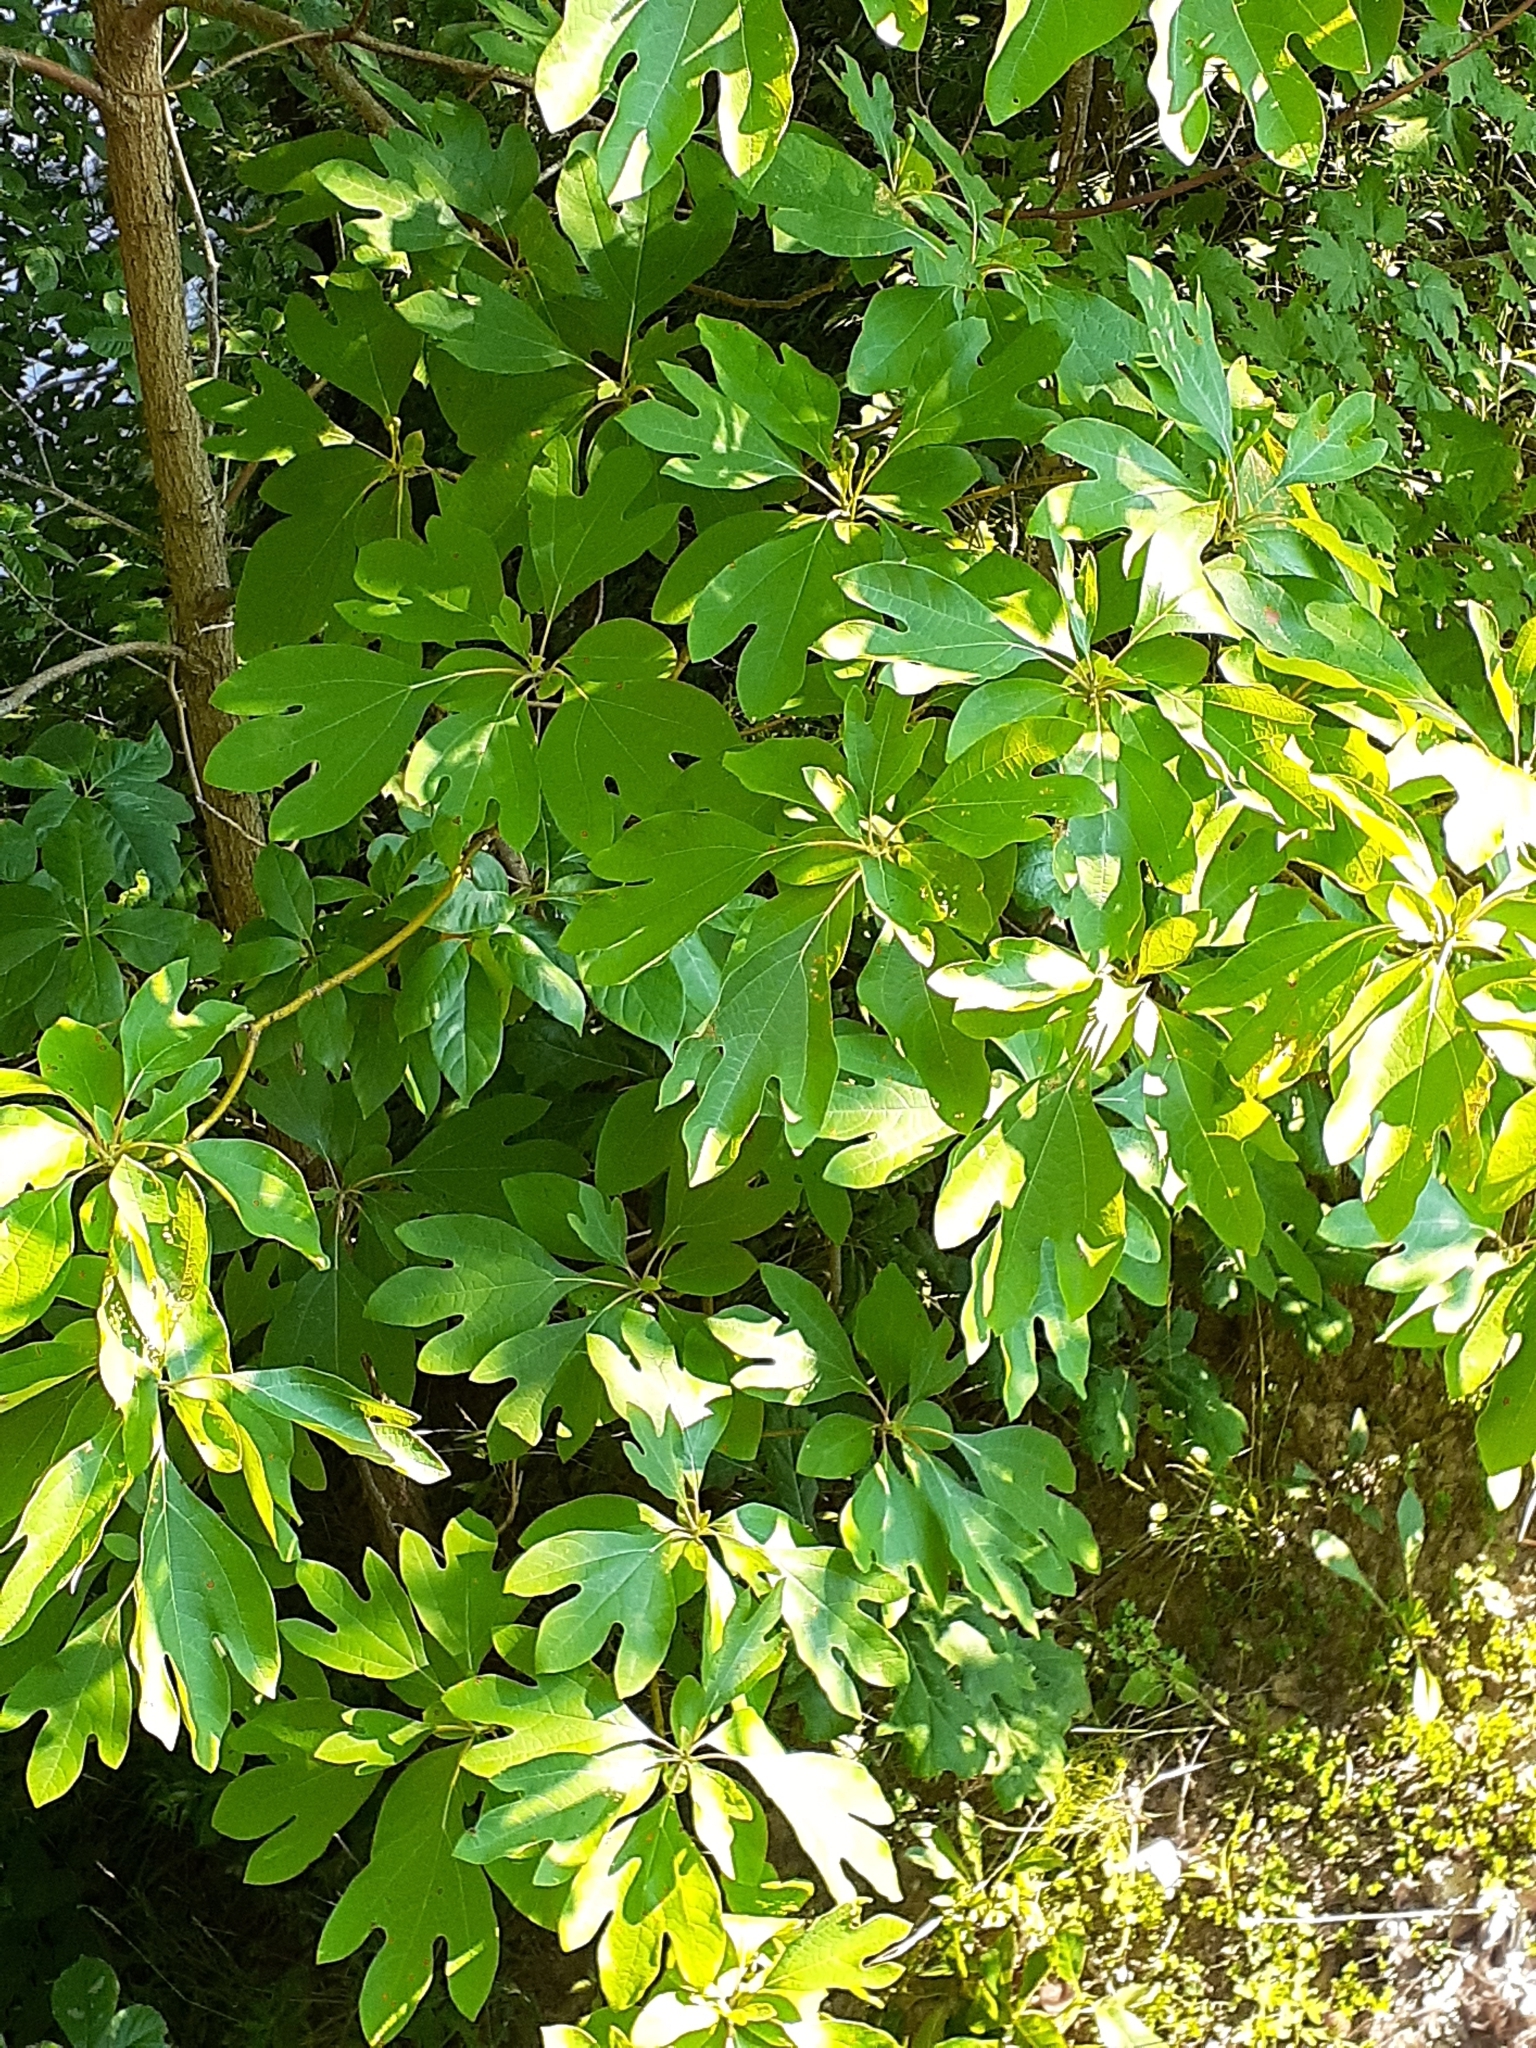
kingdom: Plantae
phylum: Tracheophyta
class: Magnoliopsida
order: Laurales
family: Lauraceae
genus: Sassafras
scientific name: Sassafras albidum
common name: Sassafras
